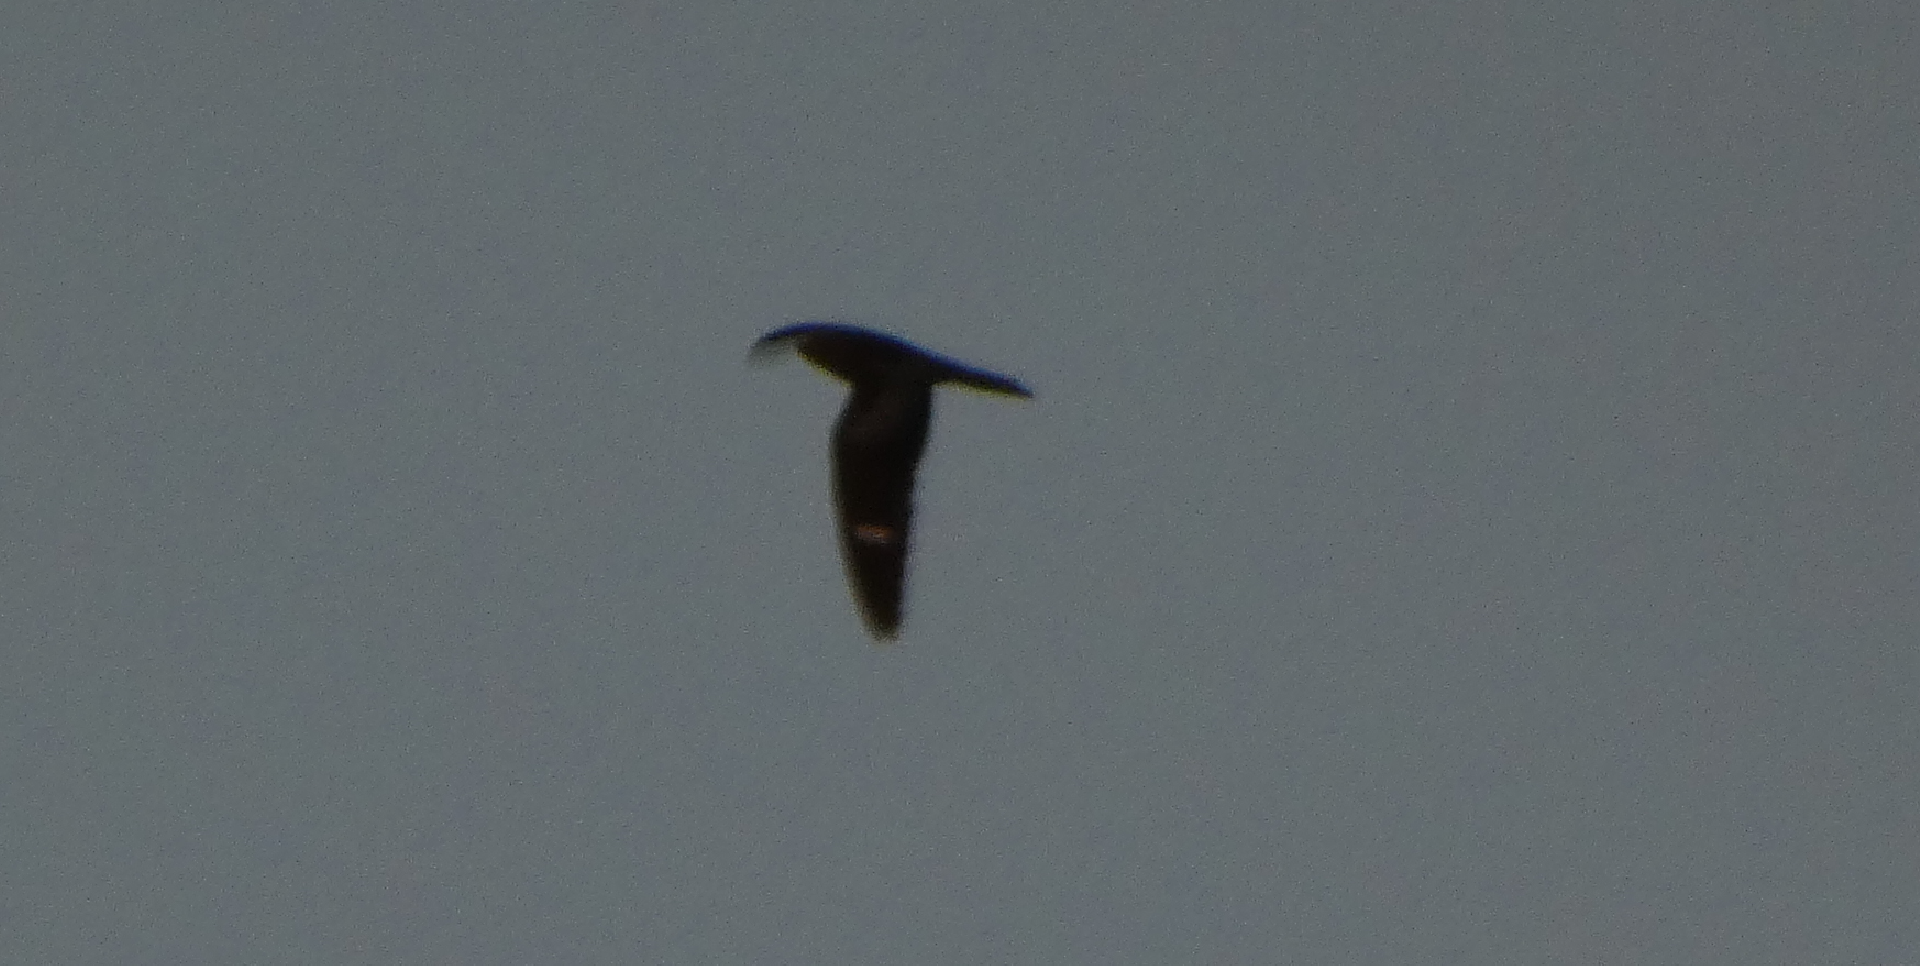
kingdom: Animalia
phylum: Chordata
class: Aves
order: Caprimulgiformes
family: Caprimulgidae
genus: Chordeiles
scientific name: Chordeiles minor
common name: Common nighthawk
